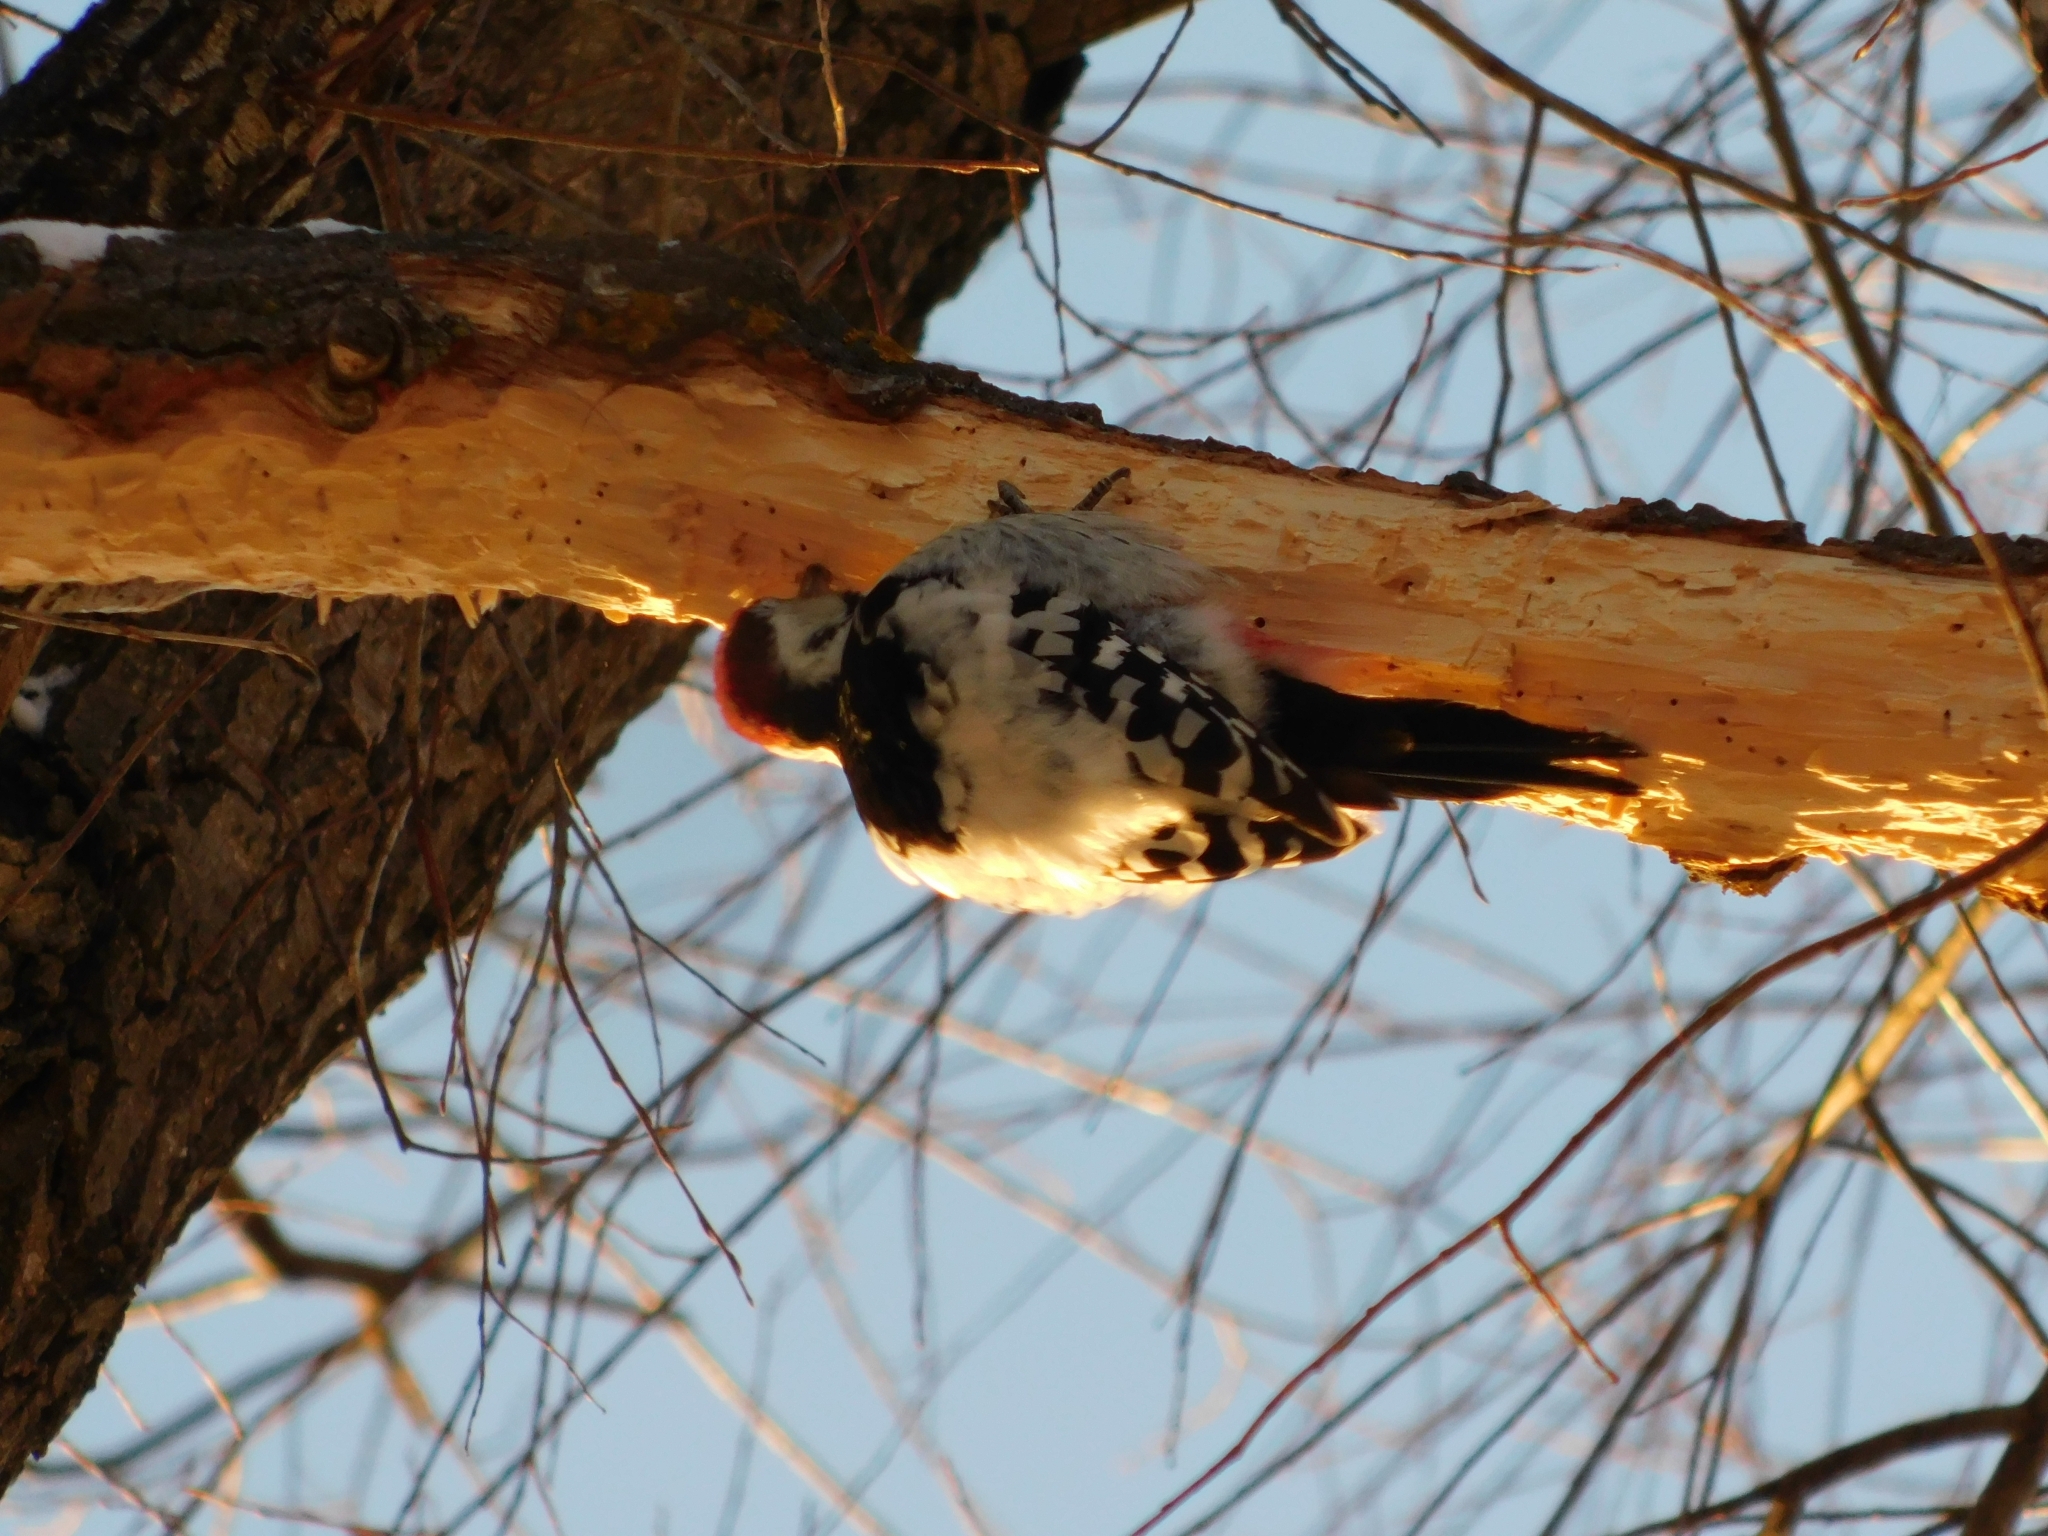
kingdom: Animalia
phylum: Chordata
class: Aves
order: Piciformes
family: Picidae
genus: Dendrocopos
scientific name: Dendrocopos leucotos
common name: White-backed woodpecker
